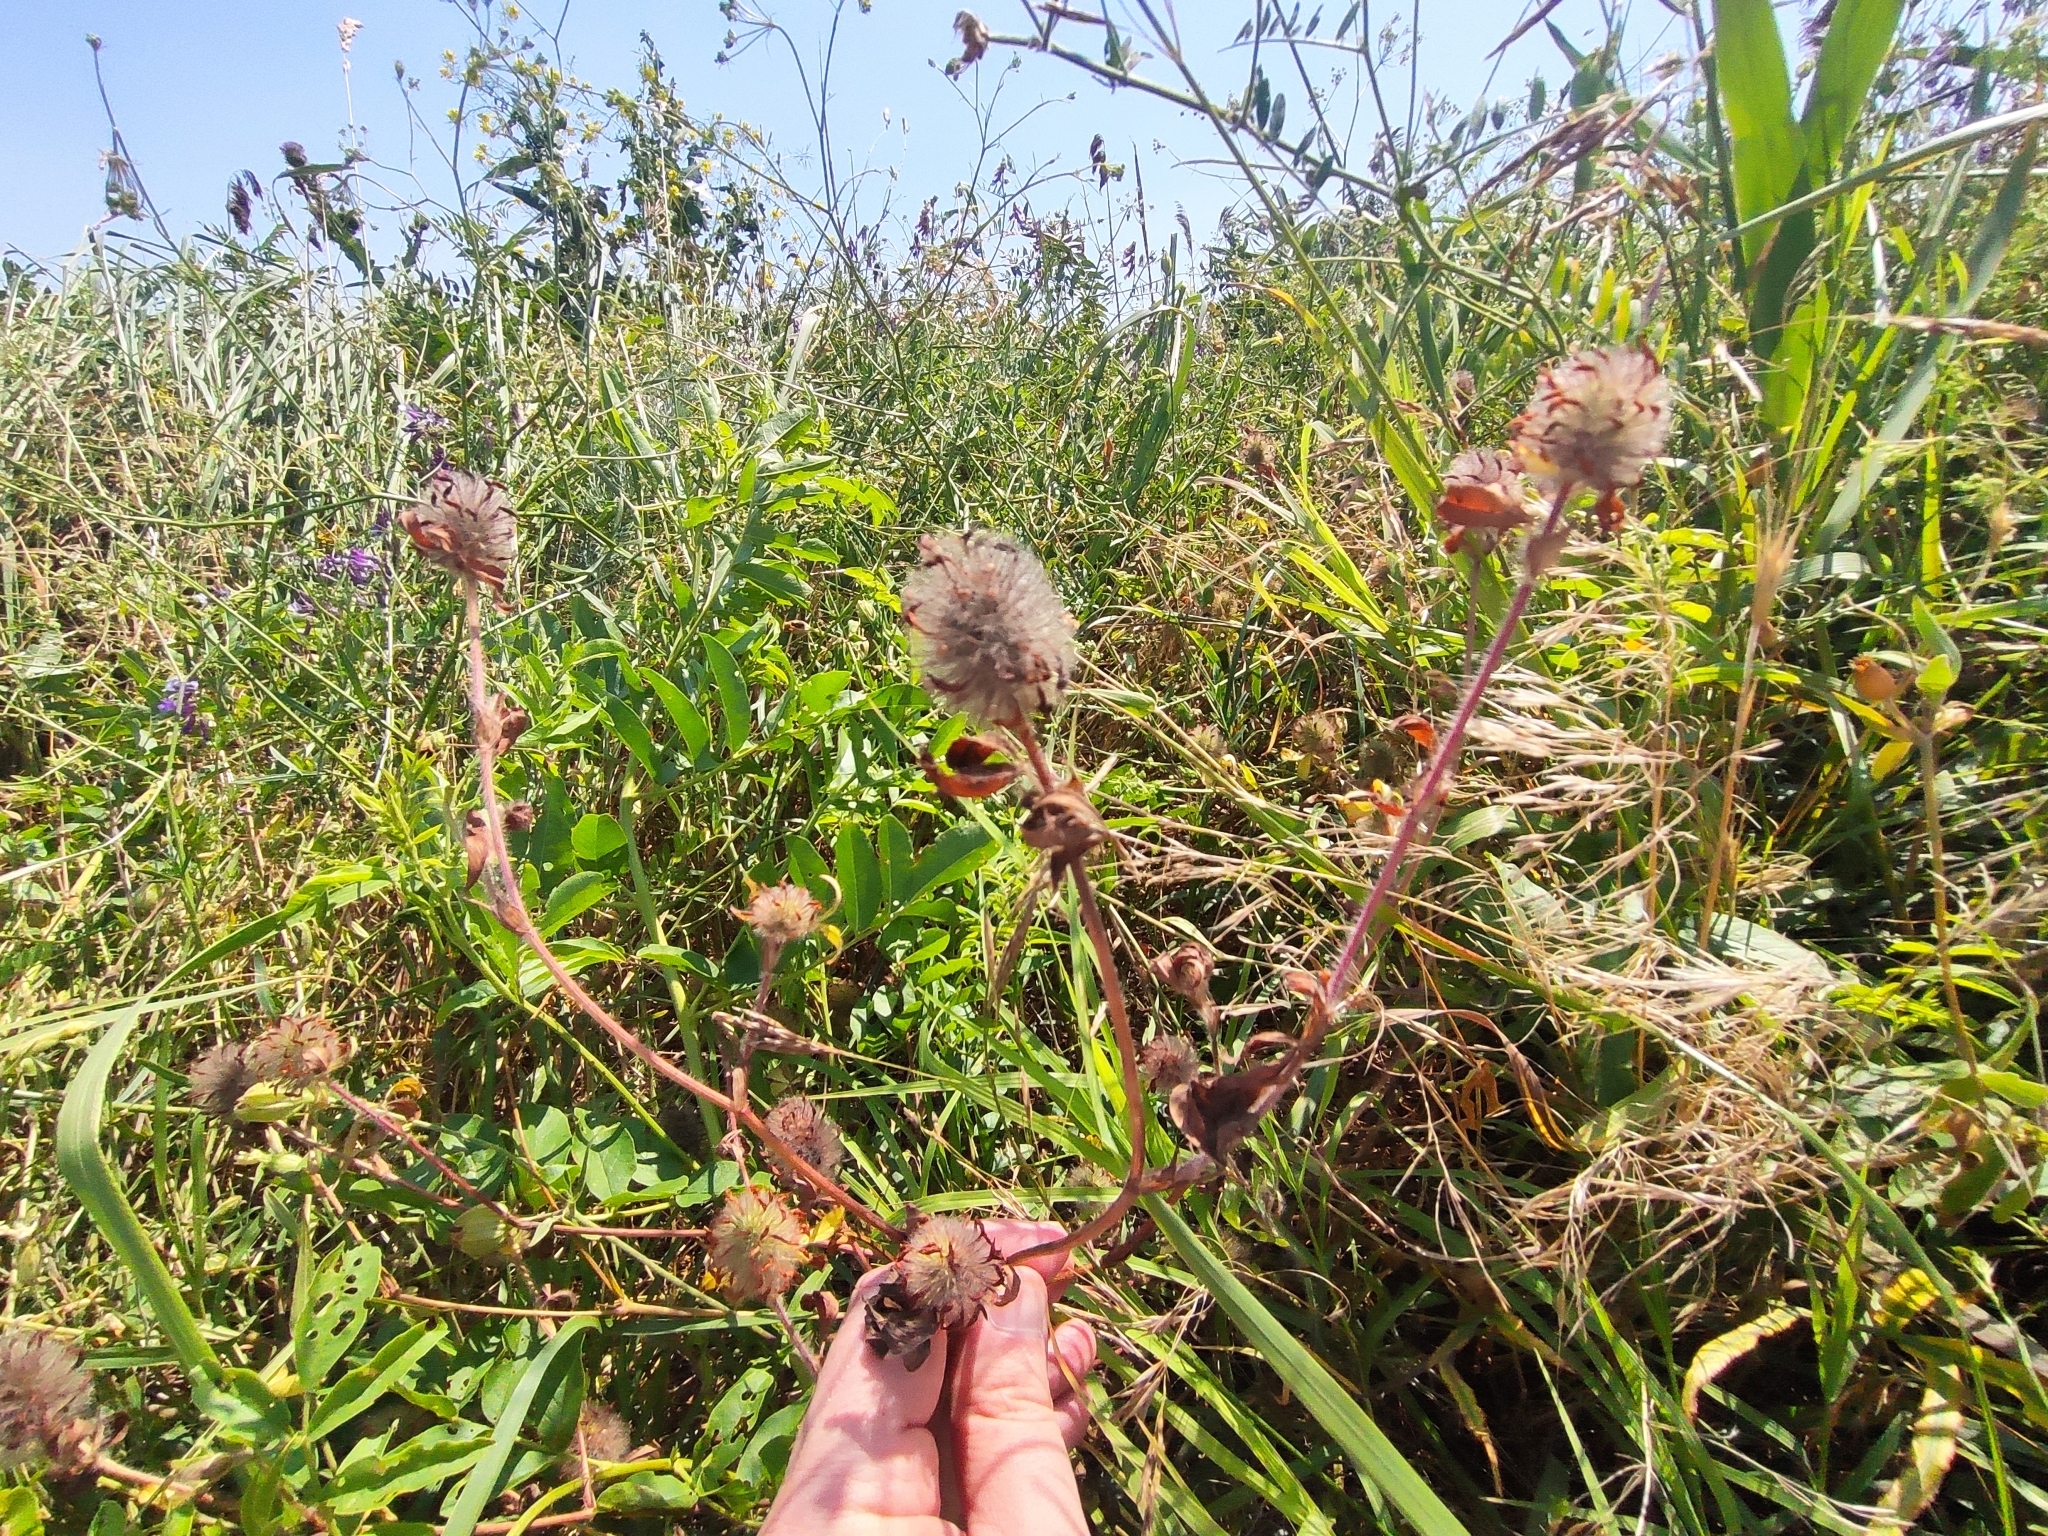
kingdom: Plantae
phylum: Tracheophyta
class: Magnoliopsida
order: Fabales
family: Fabaceae
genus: Trifolium
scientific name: Trifolium diffusum
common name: Diffuse clover
